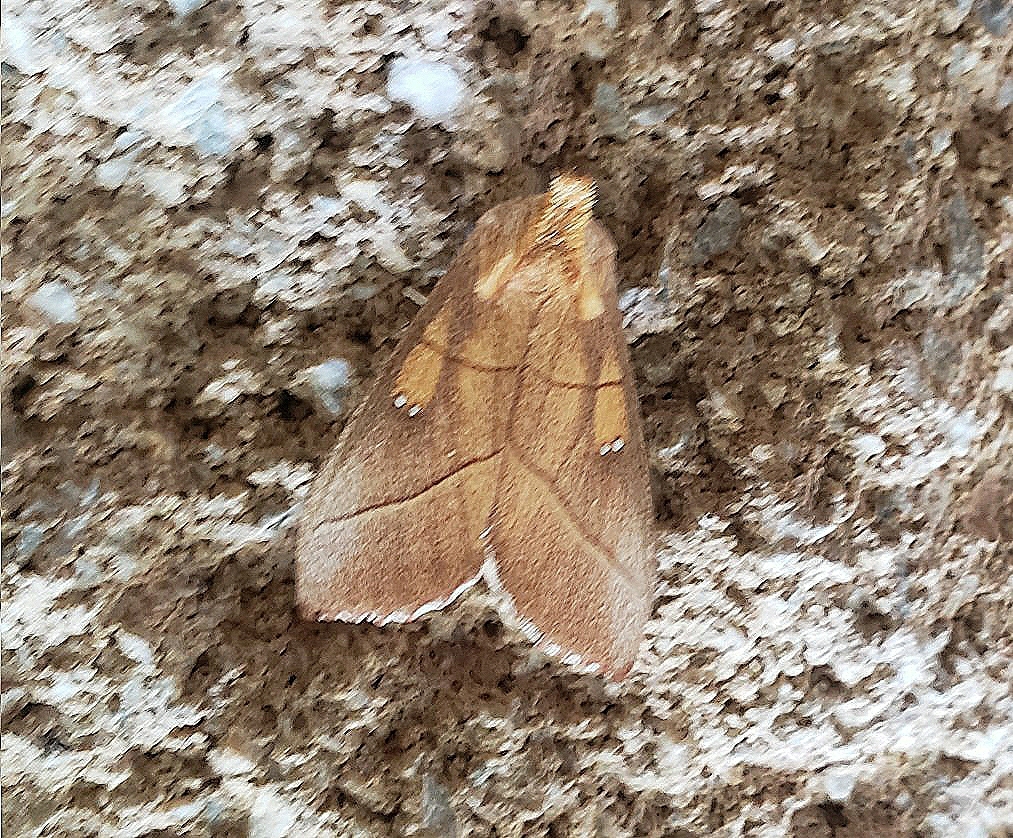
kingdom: Animalia
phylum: Arthropoda
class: Insecta
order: Lepidoptera
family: Notodontidae
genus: Nadata
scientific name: Nadata gibbosa
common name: White-dotted prominent
